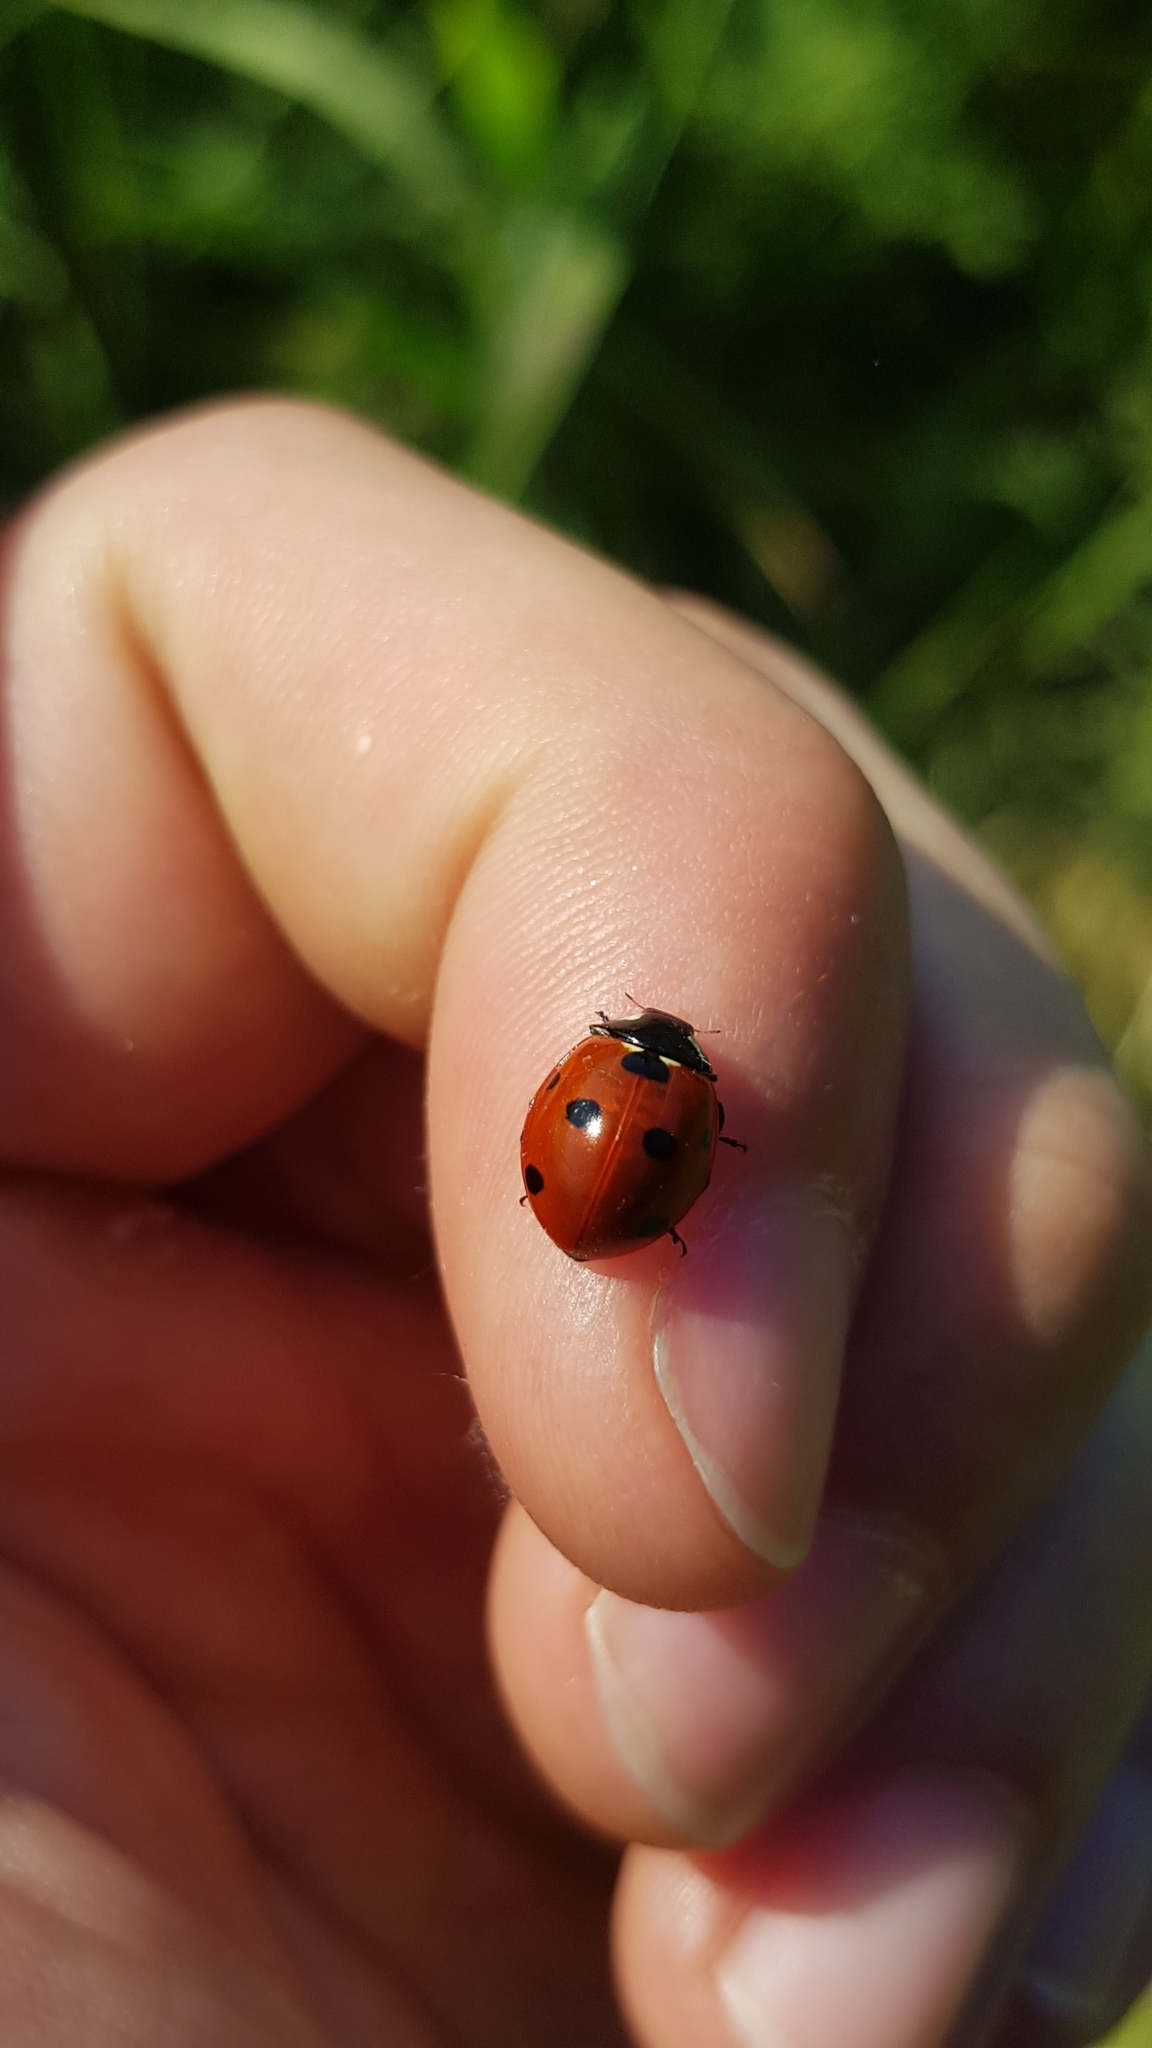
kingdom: Animalia
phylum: Arthropoda
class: Insecta
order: Coleoptera
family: Coccinellidae
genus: Coccinella
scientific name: Coccinella septempunctata
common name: Sevenspotted lady beetle
